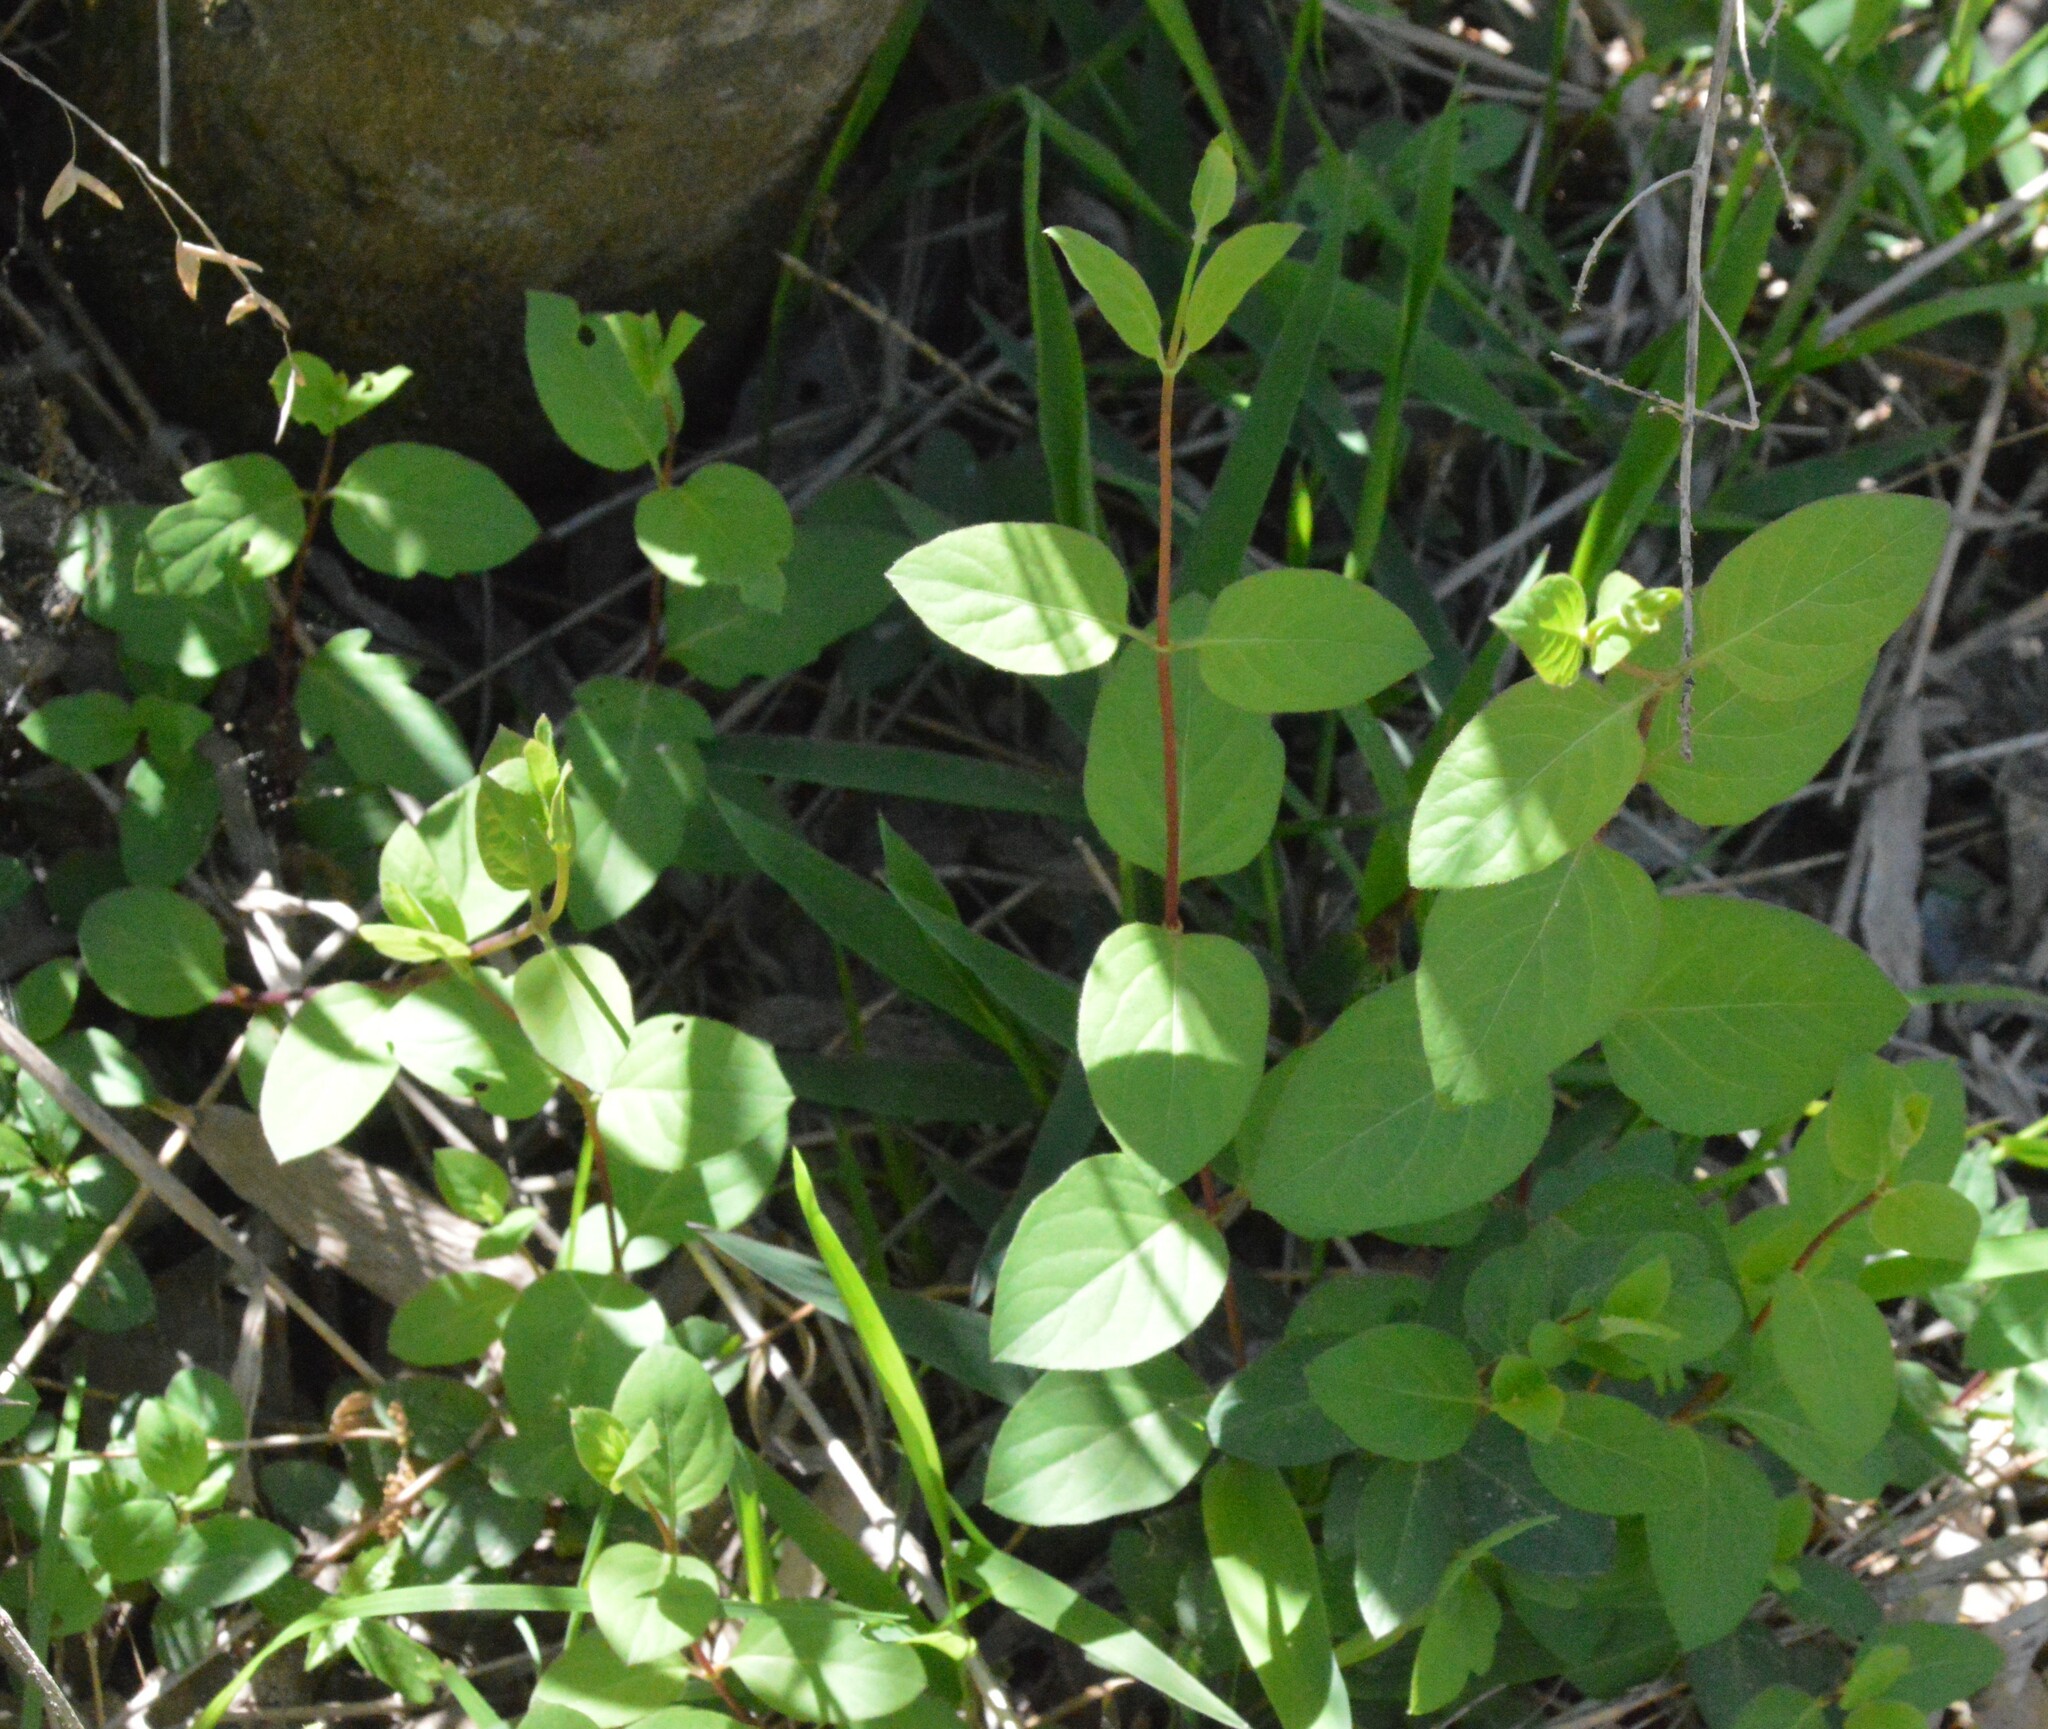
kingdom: Plantae
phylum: Tracheophyta
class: Magnoliopsida
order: Dipsacales
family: Caprifoliaceae
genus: Lonicera
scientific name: Lonicera japonica
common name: Japanese honeysuckle
